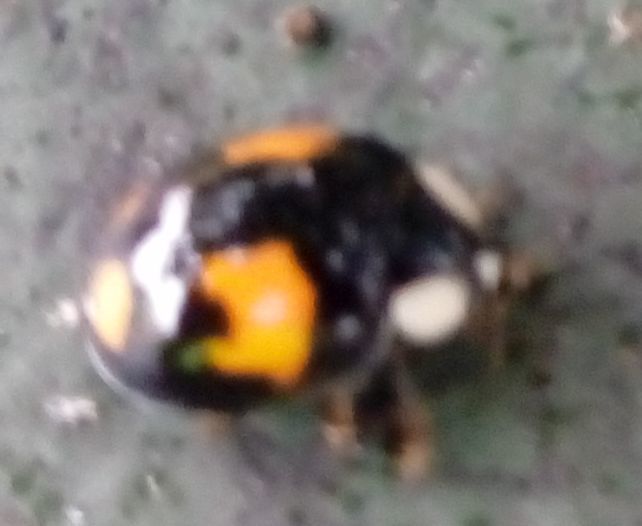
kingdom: Animalia
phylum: Arthropoda
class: Insecta
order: Coleoptera
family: Coccinellidae
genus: Harmonia
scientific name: Harmonia axyridis
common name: Harlequin ladybird
